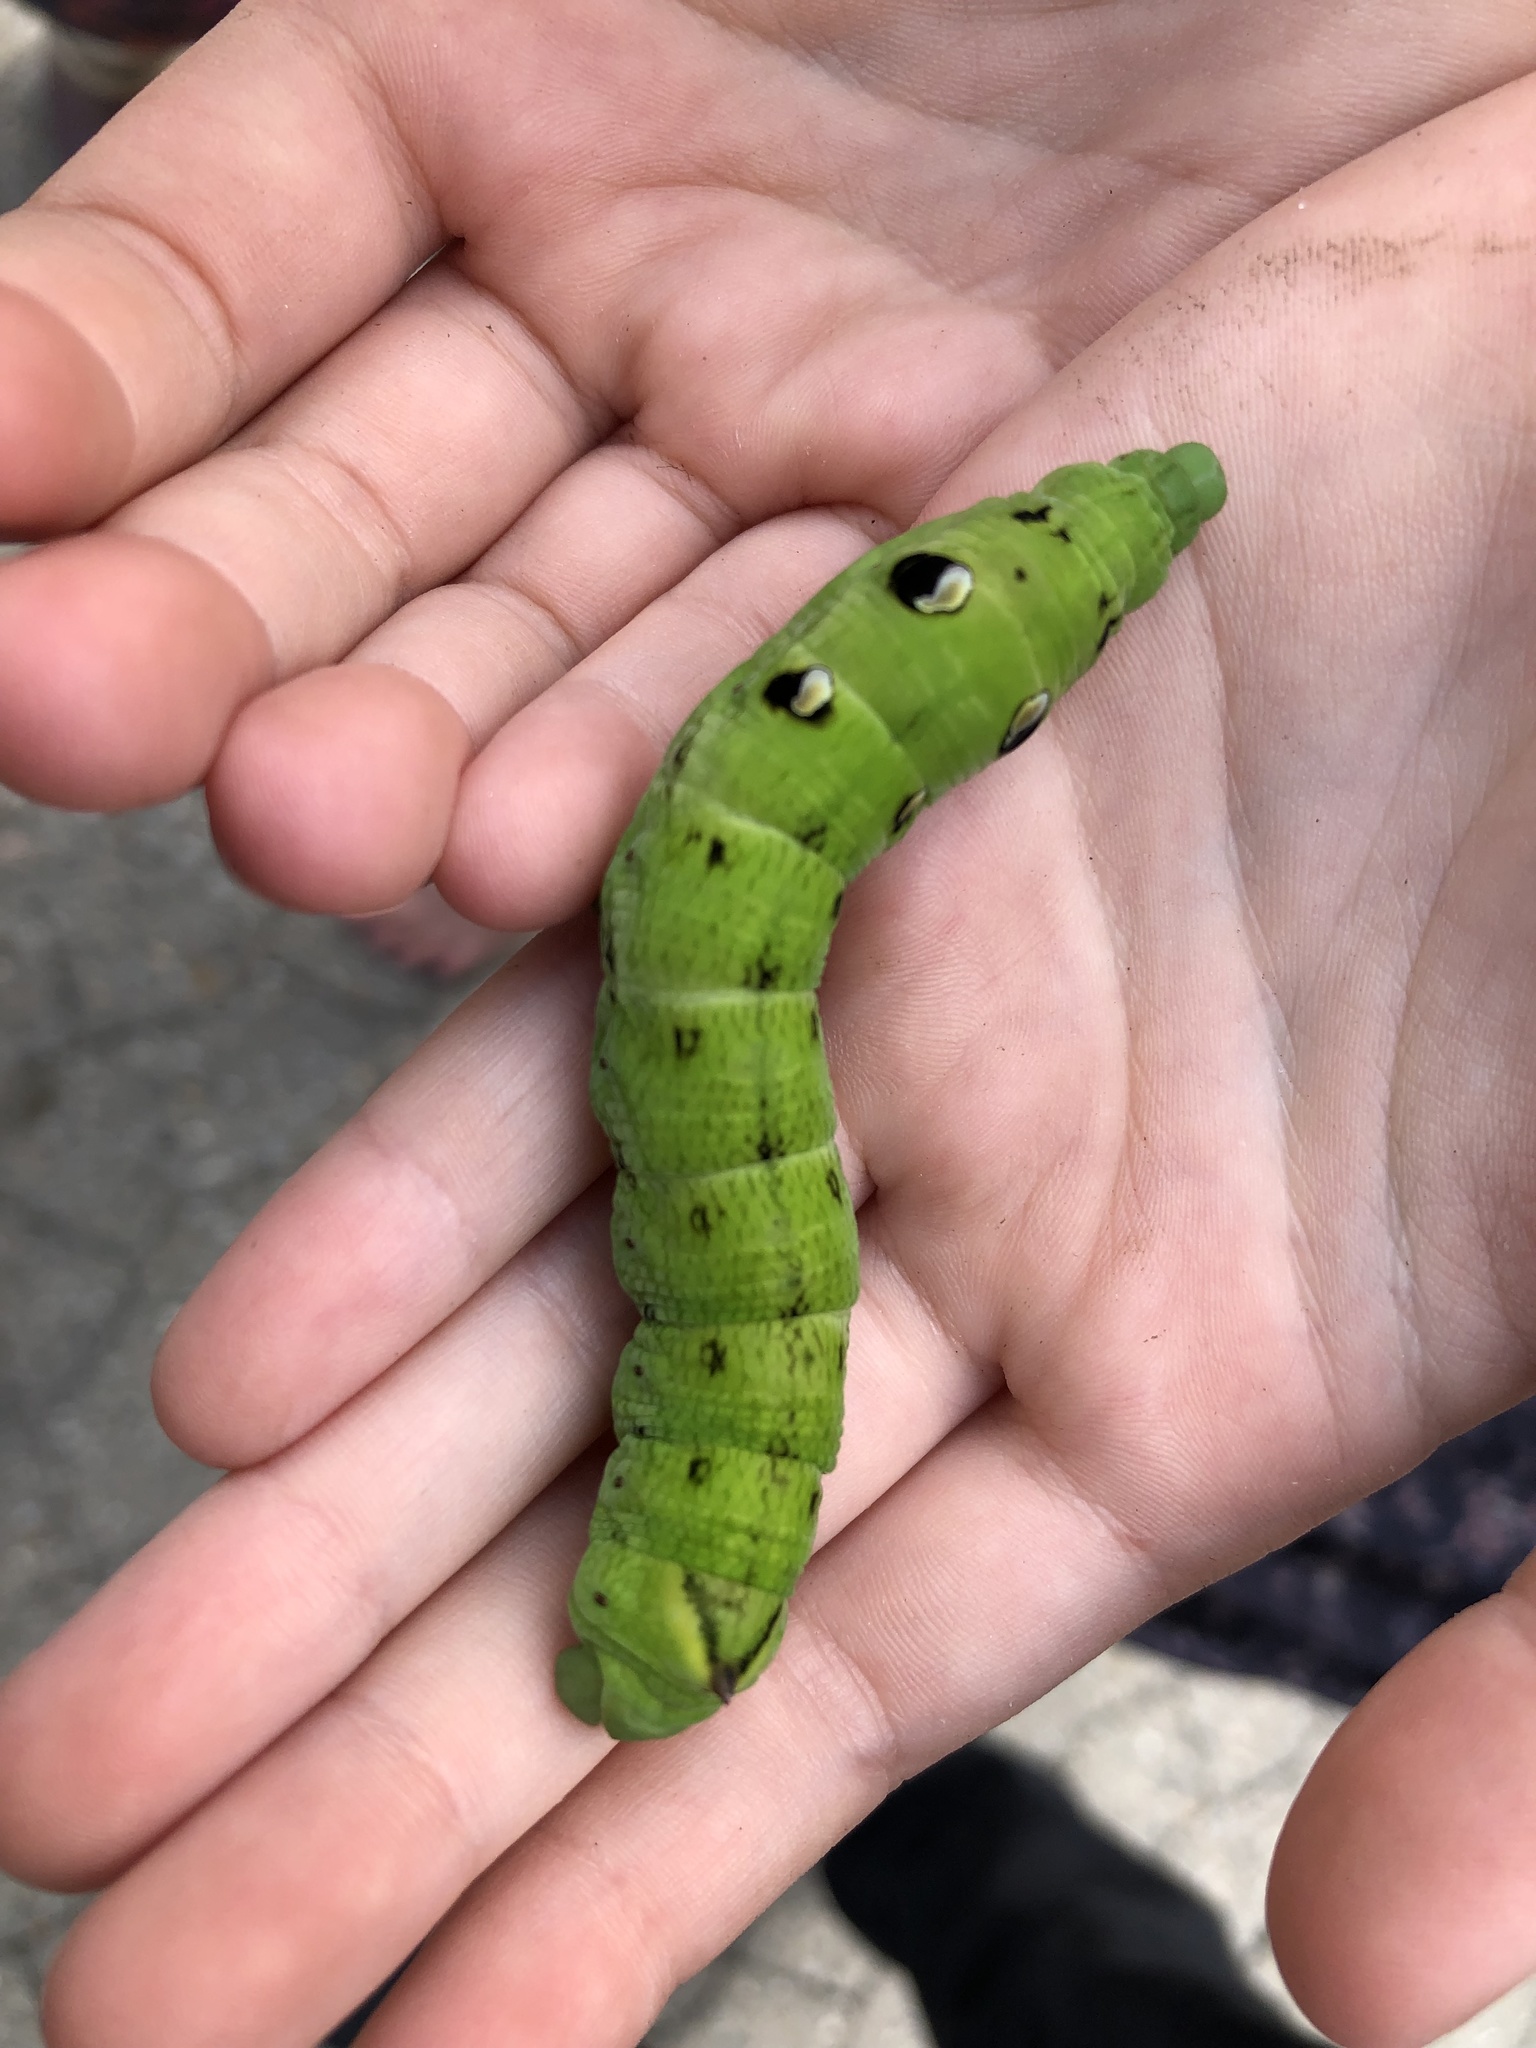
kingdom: Animalia
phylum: Arthropoda
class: Insecta
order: Lepidoptera
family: Sphingidae
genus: Deilephila
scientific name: Deilephila elpenor
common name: Elephant hawk-moth
